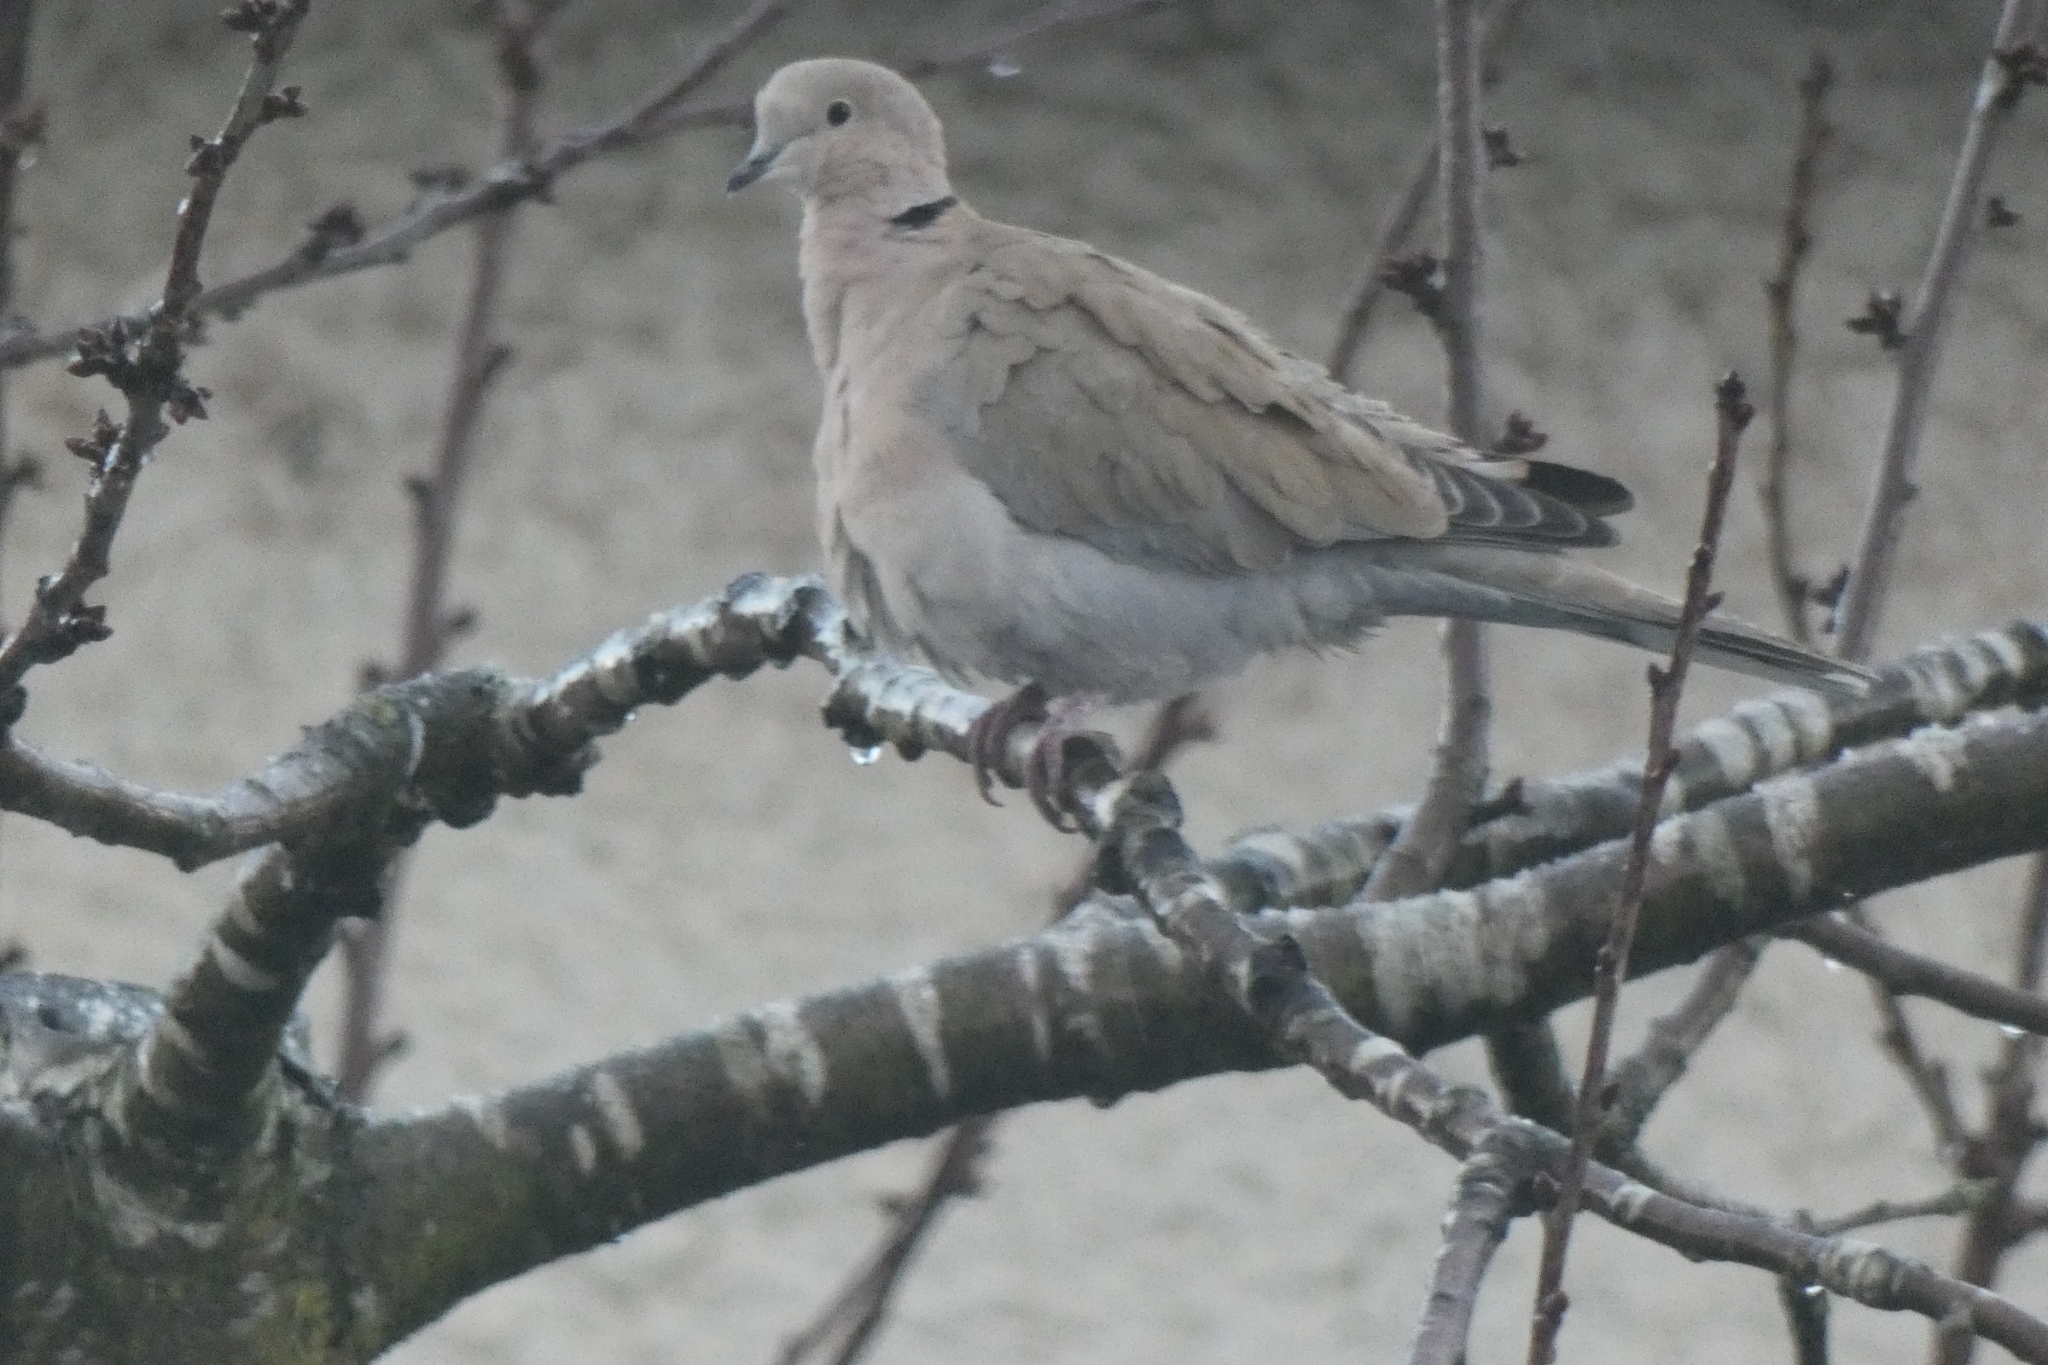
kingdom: Animalia
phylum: Chordata
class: Aves
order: Columbiformes
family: Columbidae
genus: Streptopelia
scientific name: Streptopelia decaocto
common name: Eurasian collared dove
